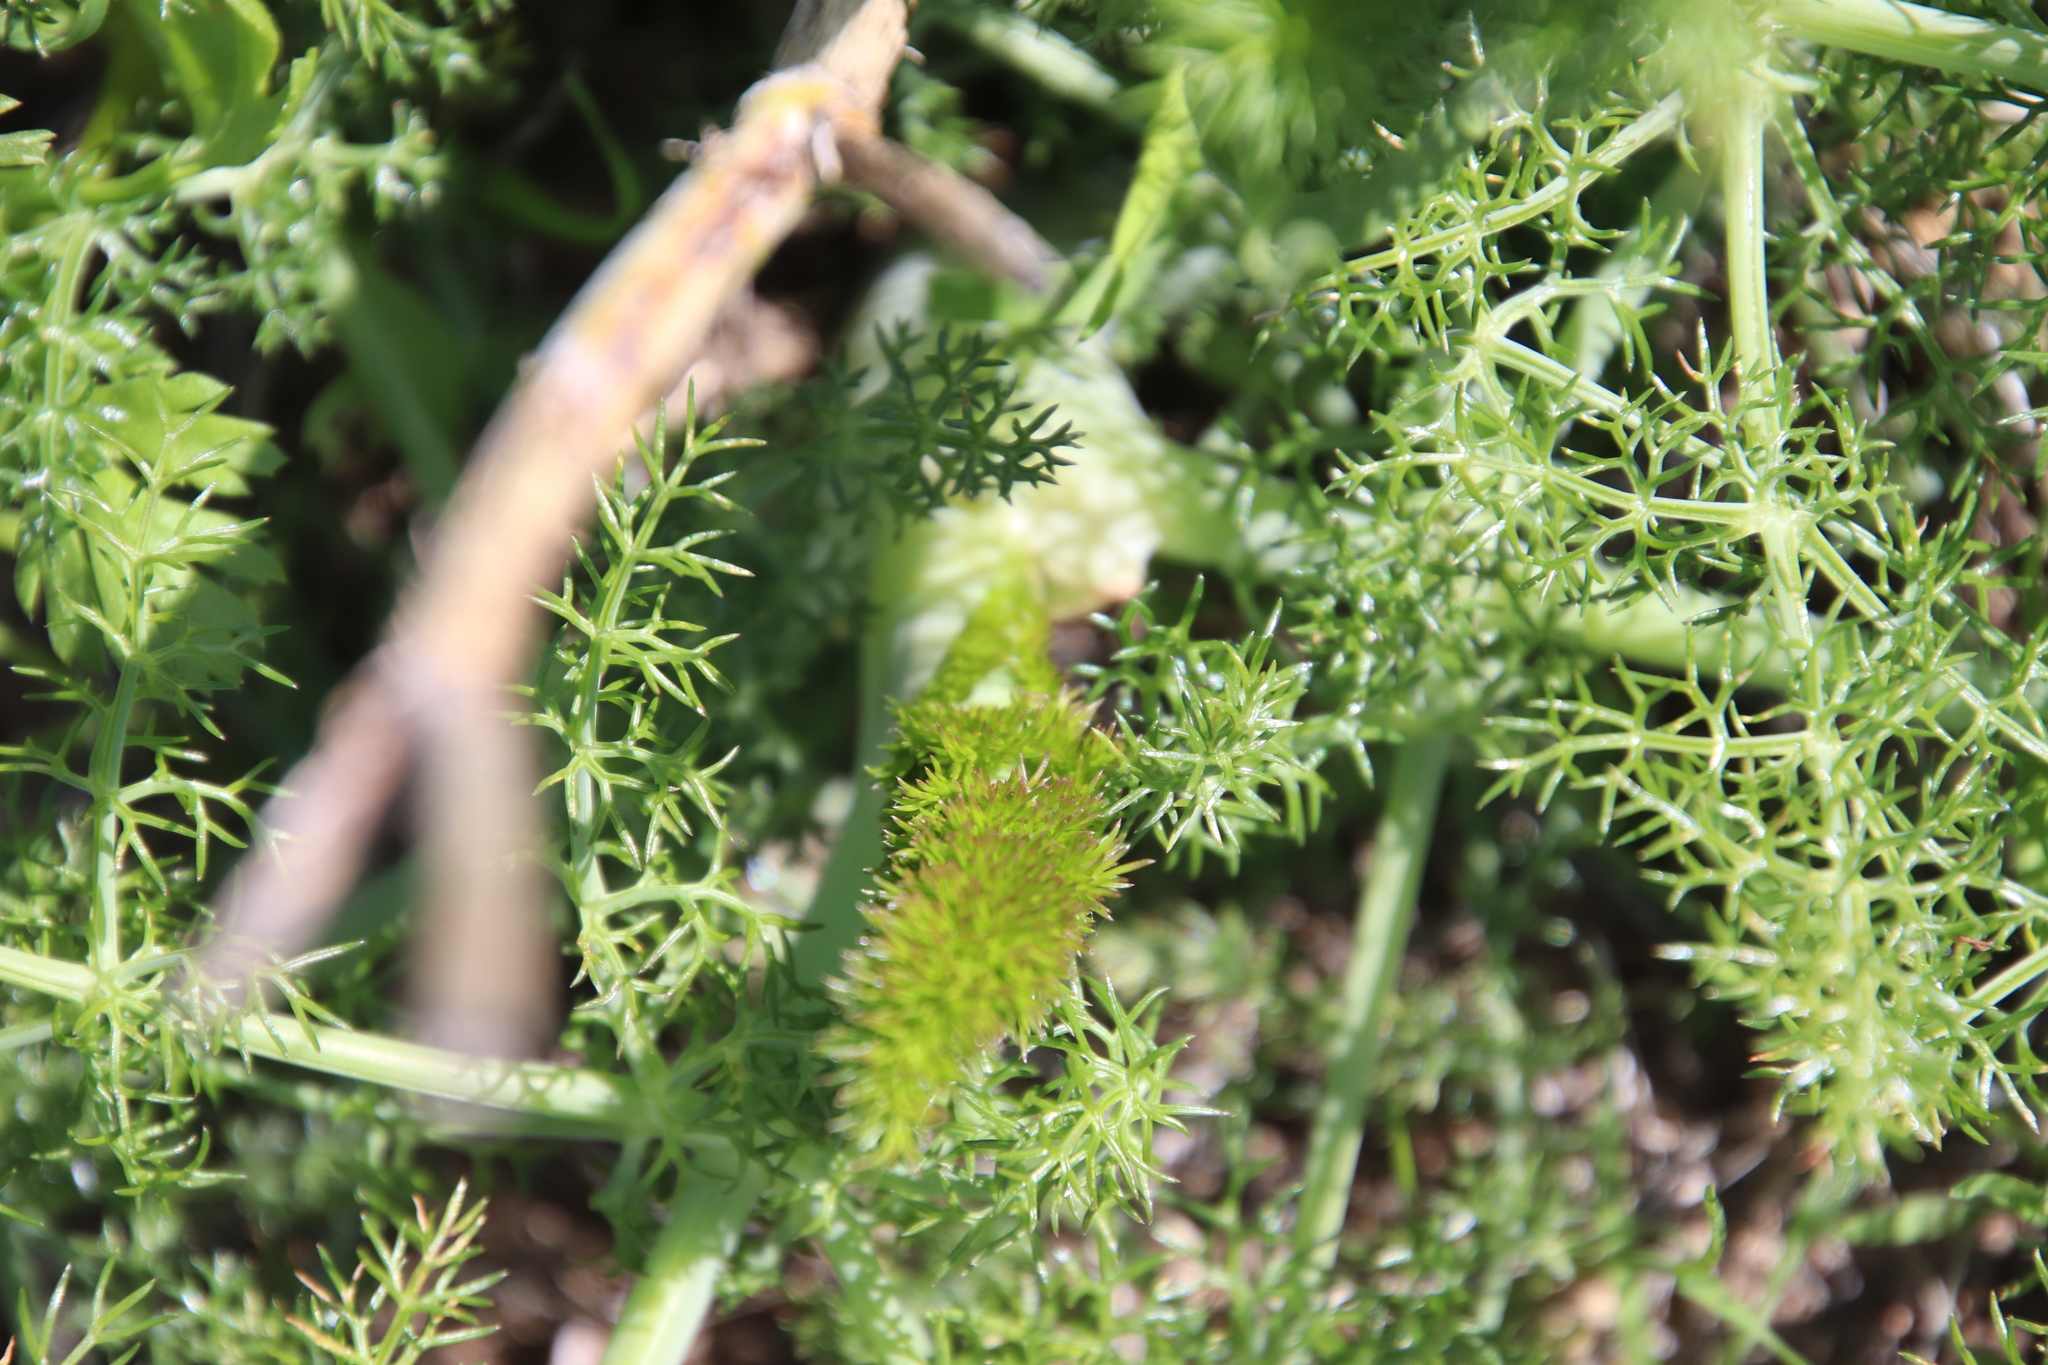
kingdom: Plantae
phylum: Tracheophyta
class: Magnoliopsida
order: Apiales
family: Apiaceae
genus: Foeniculum
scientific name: Foeniculum vulgare
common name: Fennel
